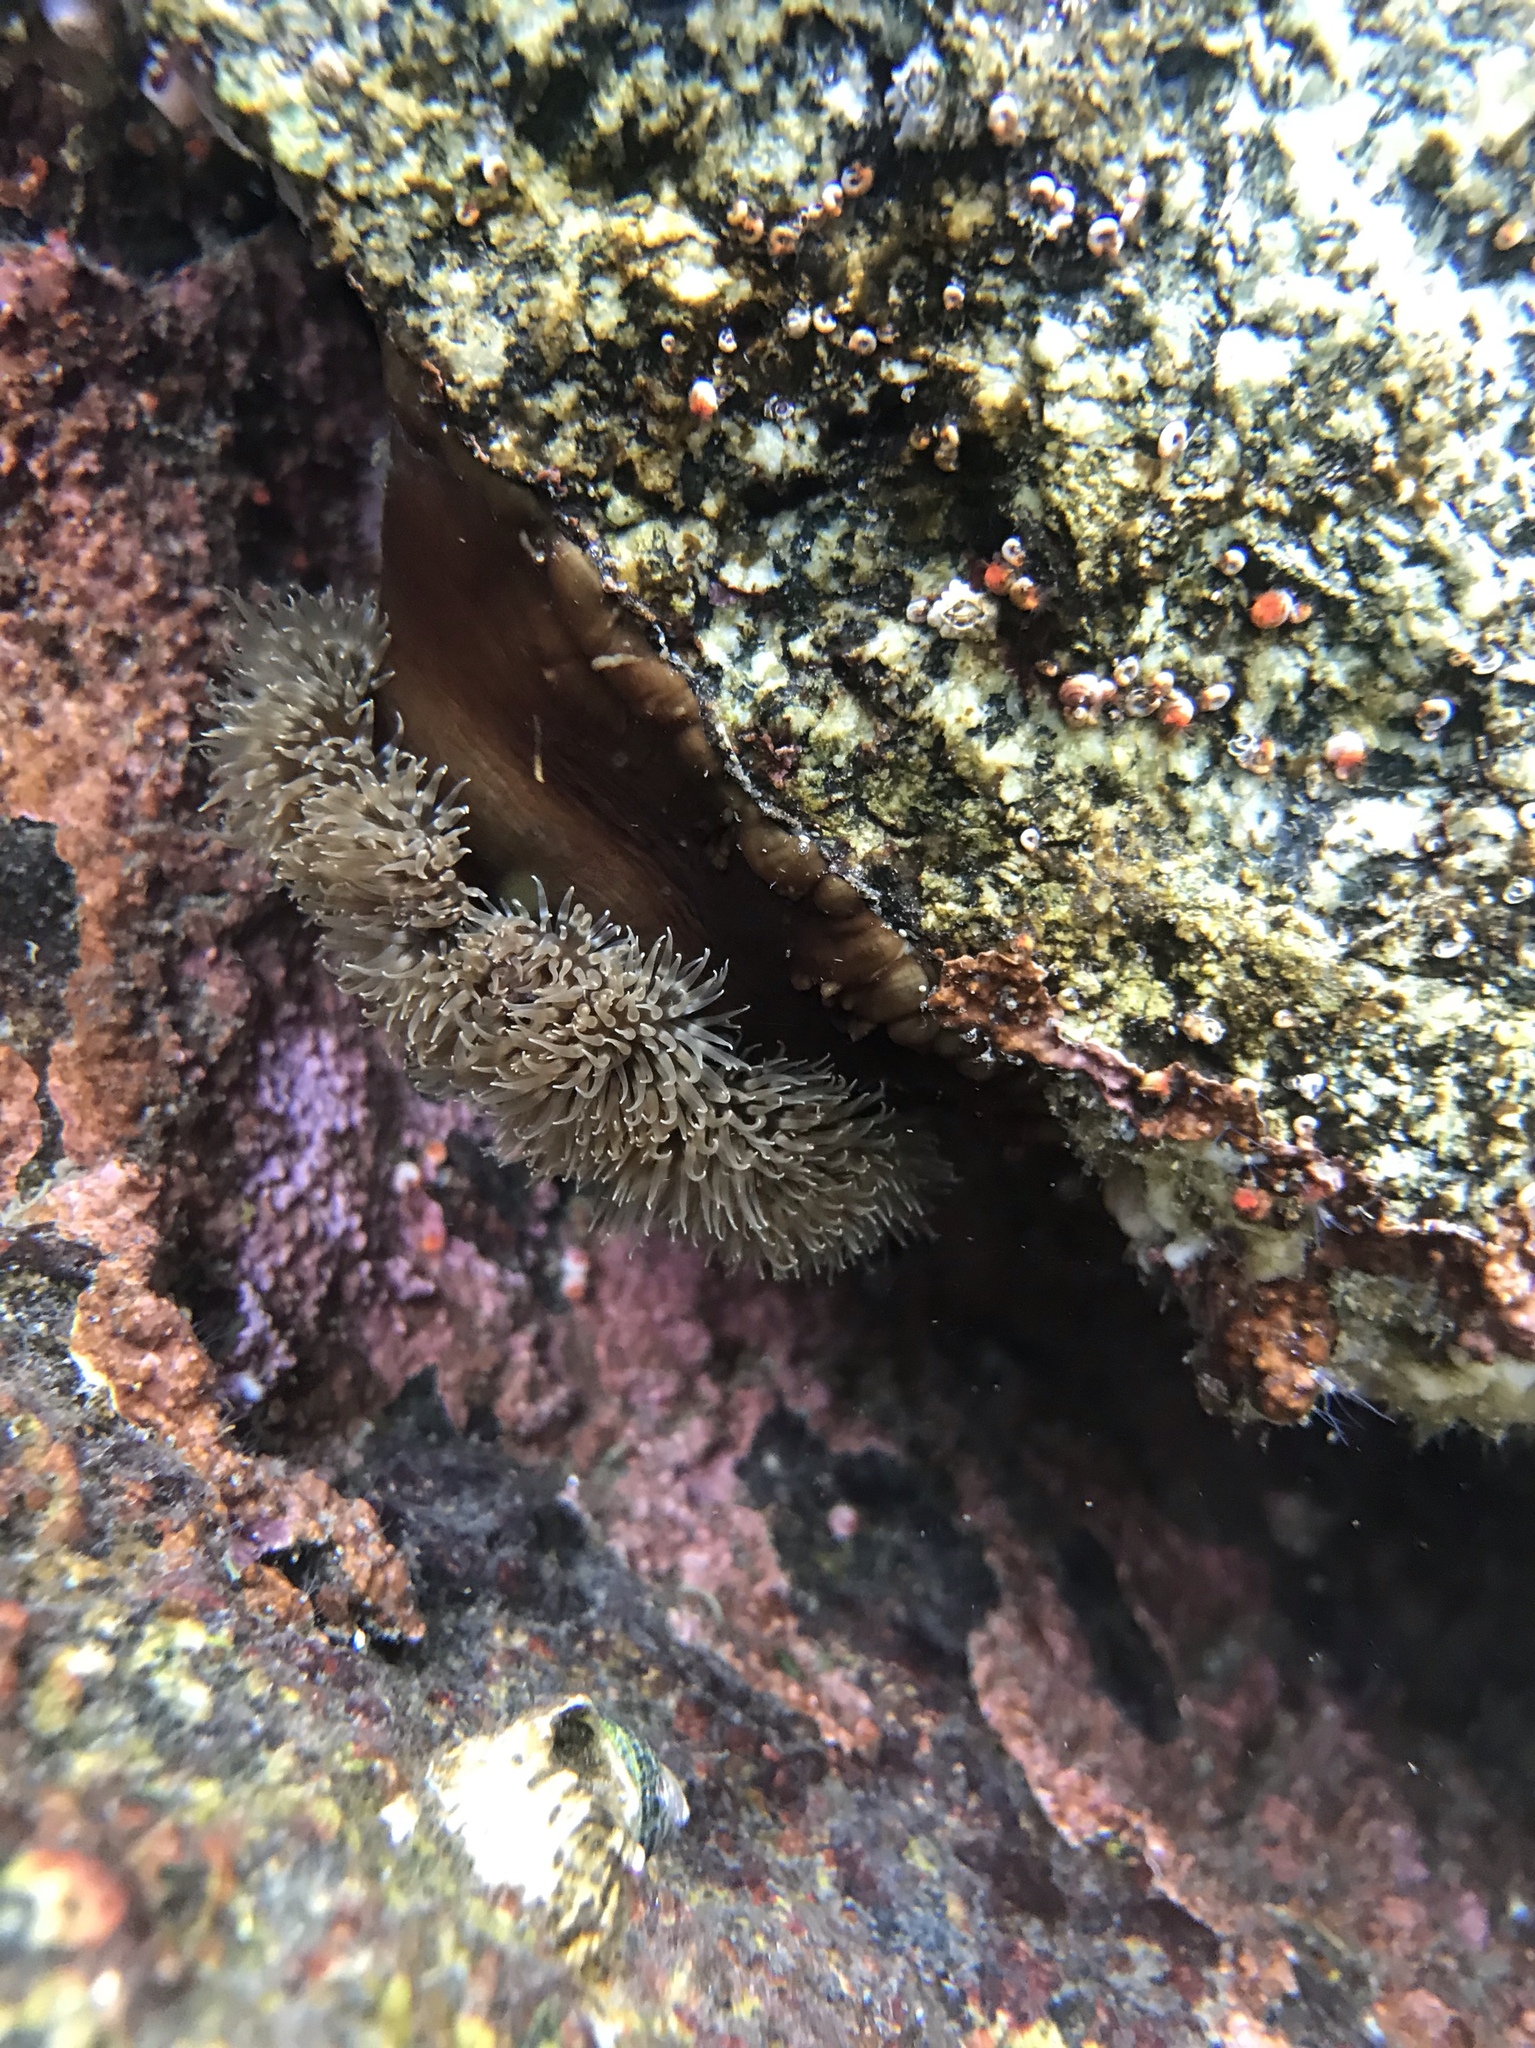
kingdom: Animalia
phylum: Cnidaria
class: Anthozoa
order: Actiniaria
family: Metridiidae
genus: Metridium
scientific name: Metridium senile
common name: Clonal plumose anemone
